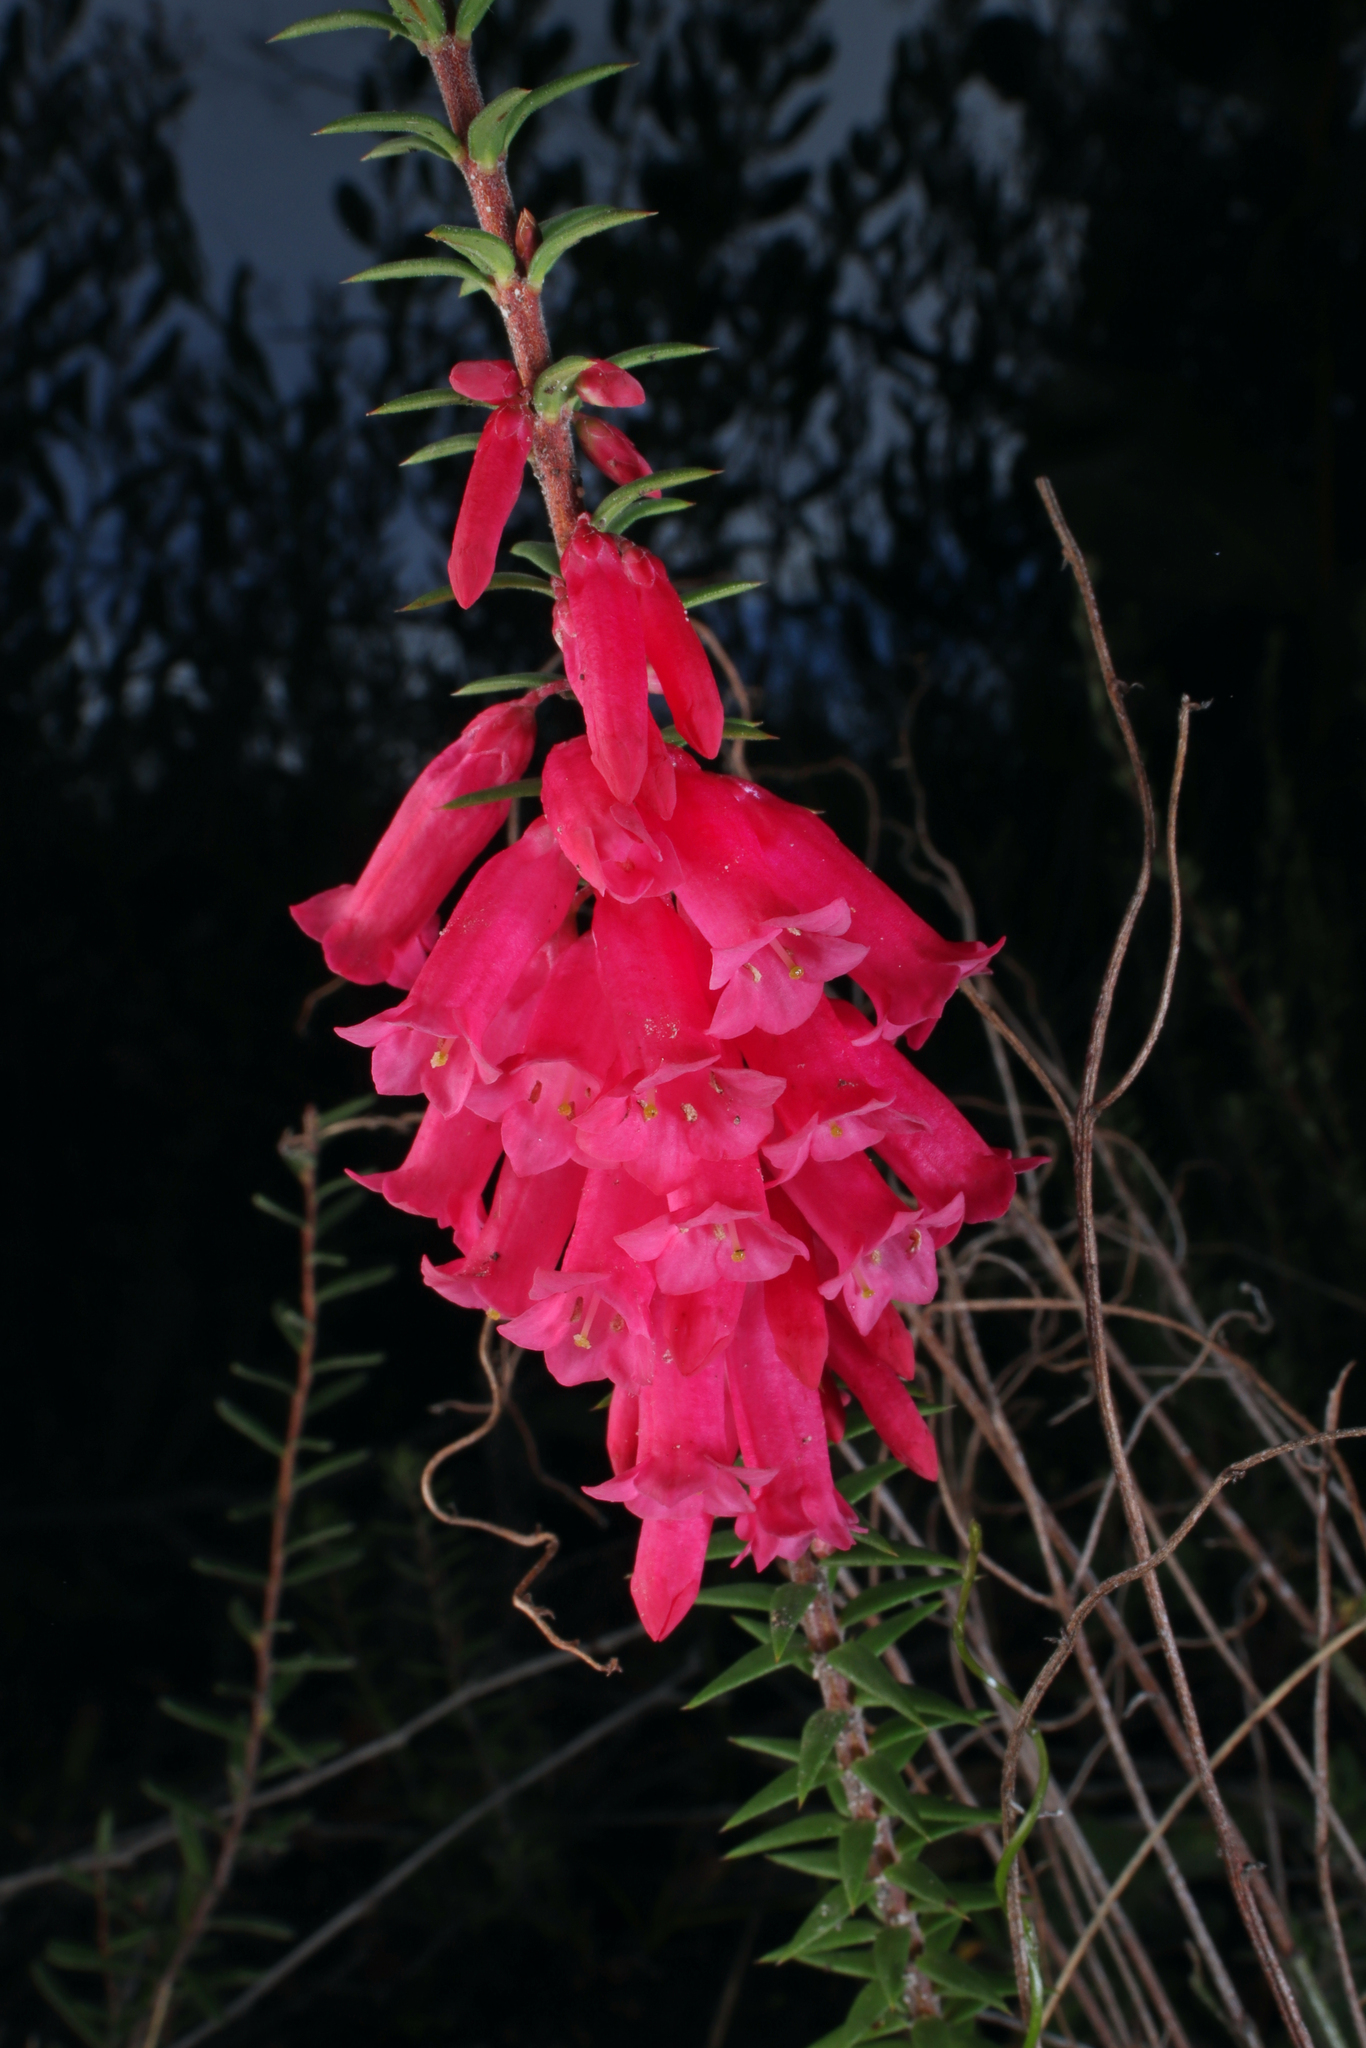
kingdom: Plantae
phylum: Tracheophyta
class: Magnoliopsida
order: Ericales
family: Ericaceae
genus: Epacris
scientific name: Epacris impressa
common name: Common-heath
